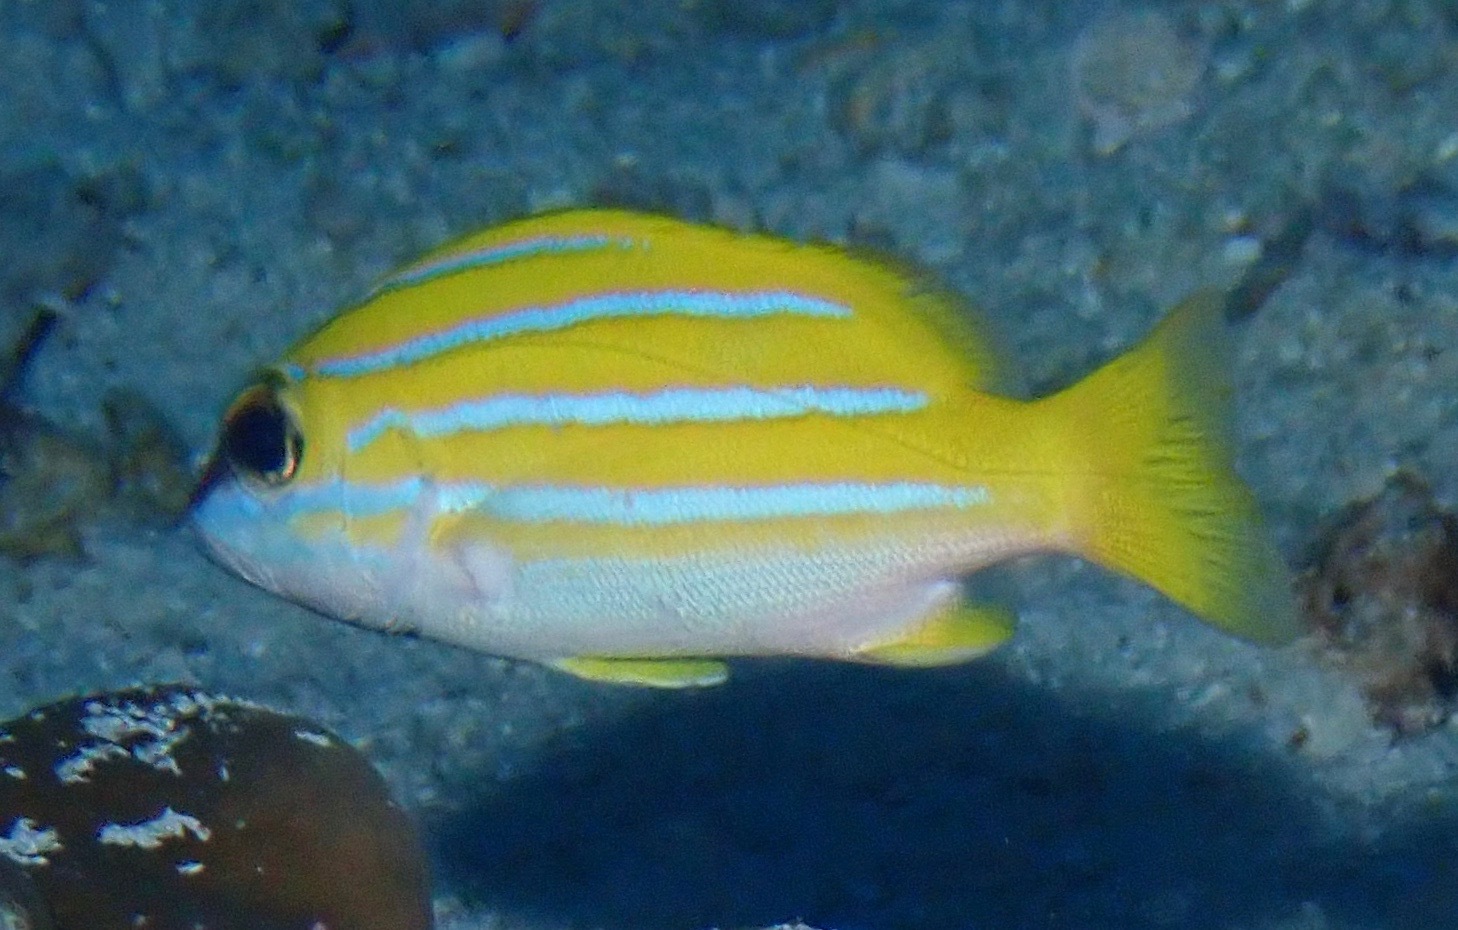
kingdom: Animalia
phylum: Chordata
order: Perciformes
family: Lutjanidae
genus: Lutjanus
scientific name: Lutjanus bengalensis
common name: Bengal snapper
